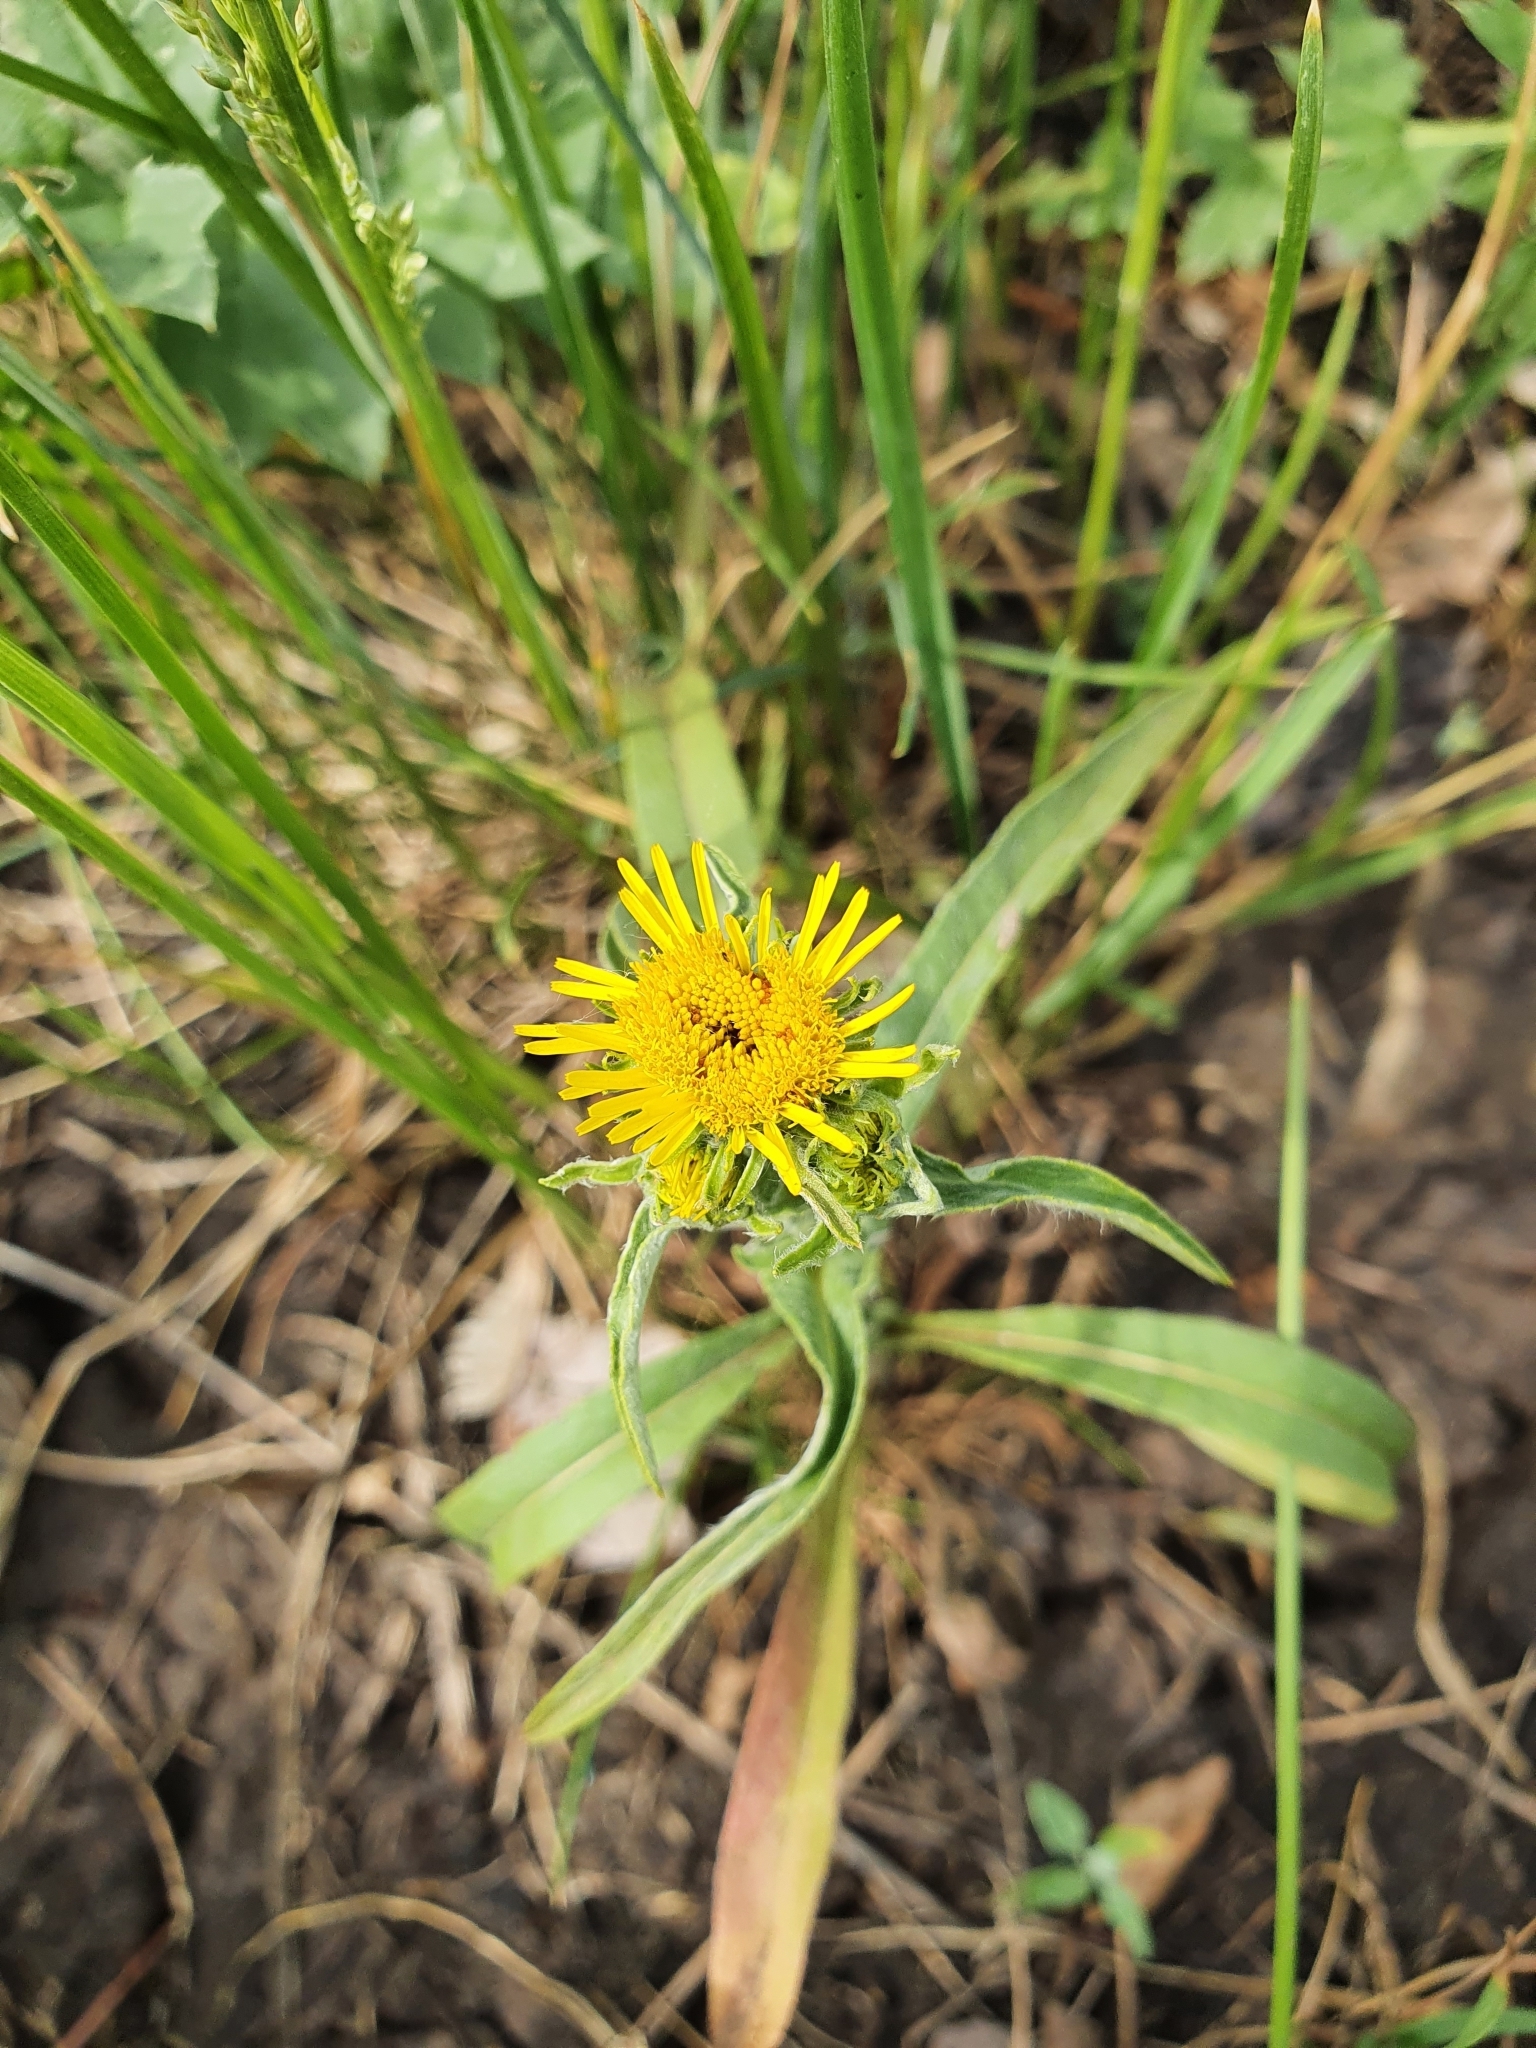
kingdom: Plantae
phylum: Tracheophyta
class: Magnoliopsida
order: Asterales
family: Asteraceae
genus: Pentanema
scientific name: Pentanema britannicum
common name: British elecampane
